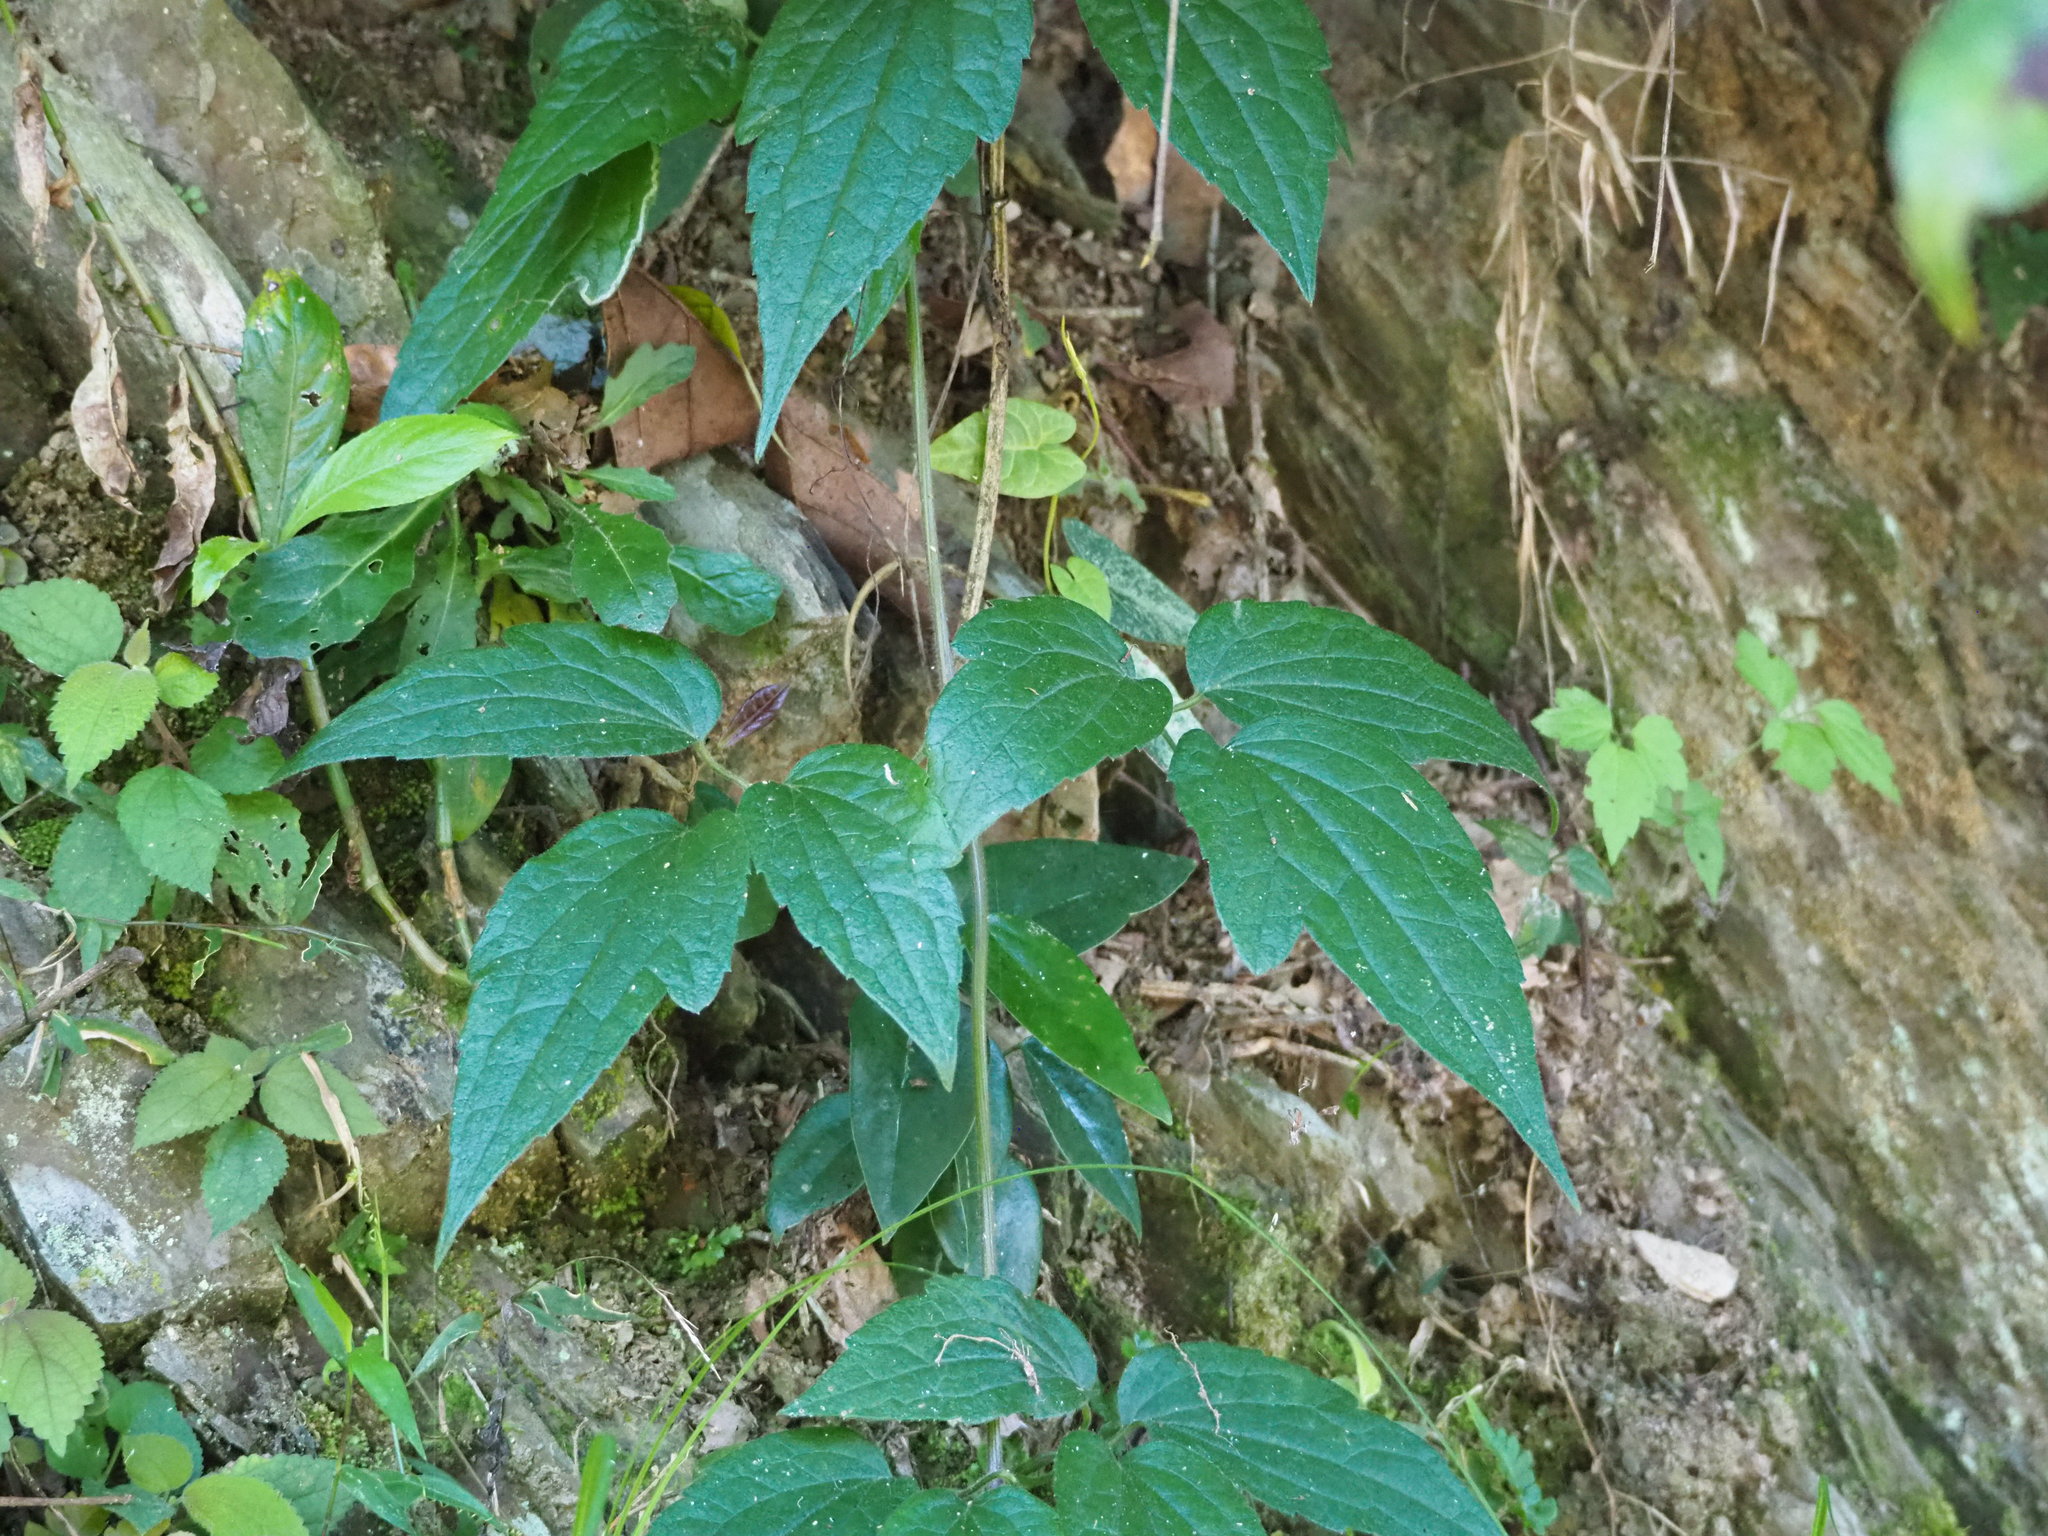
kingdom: Plantae
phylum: Tracheophyta
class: Magnoliopsida
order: Ranunculales
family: Ranunculaceae
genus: Clematis
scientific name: Clematis leschenaultiana
